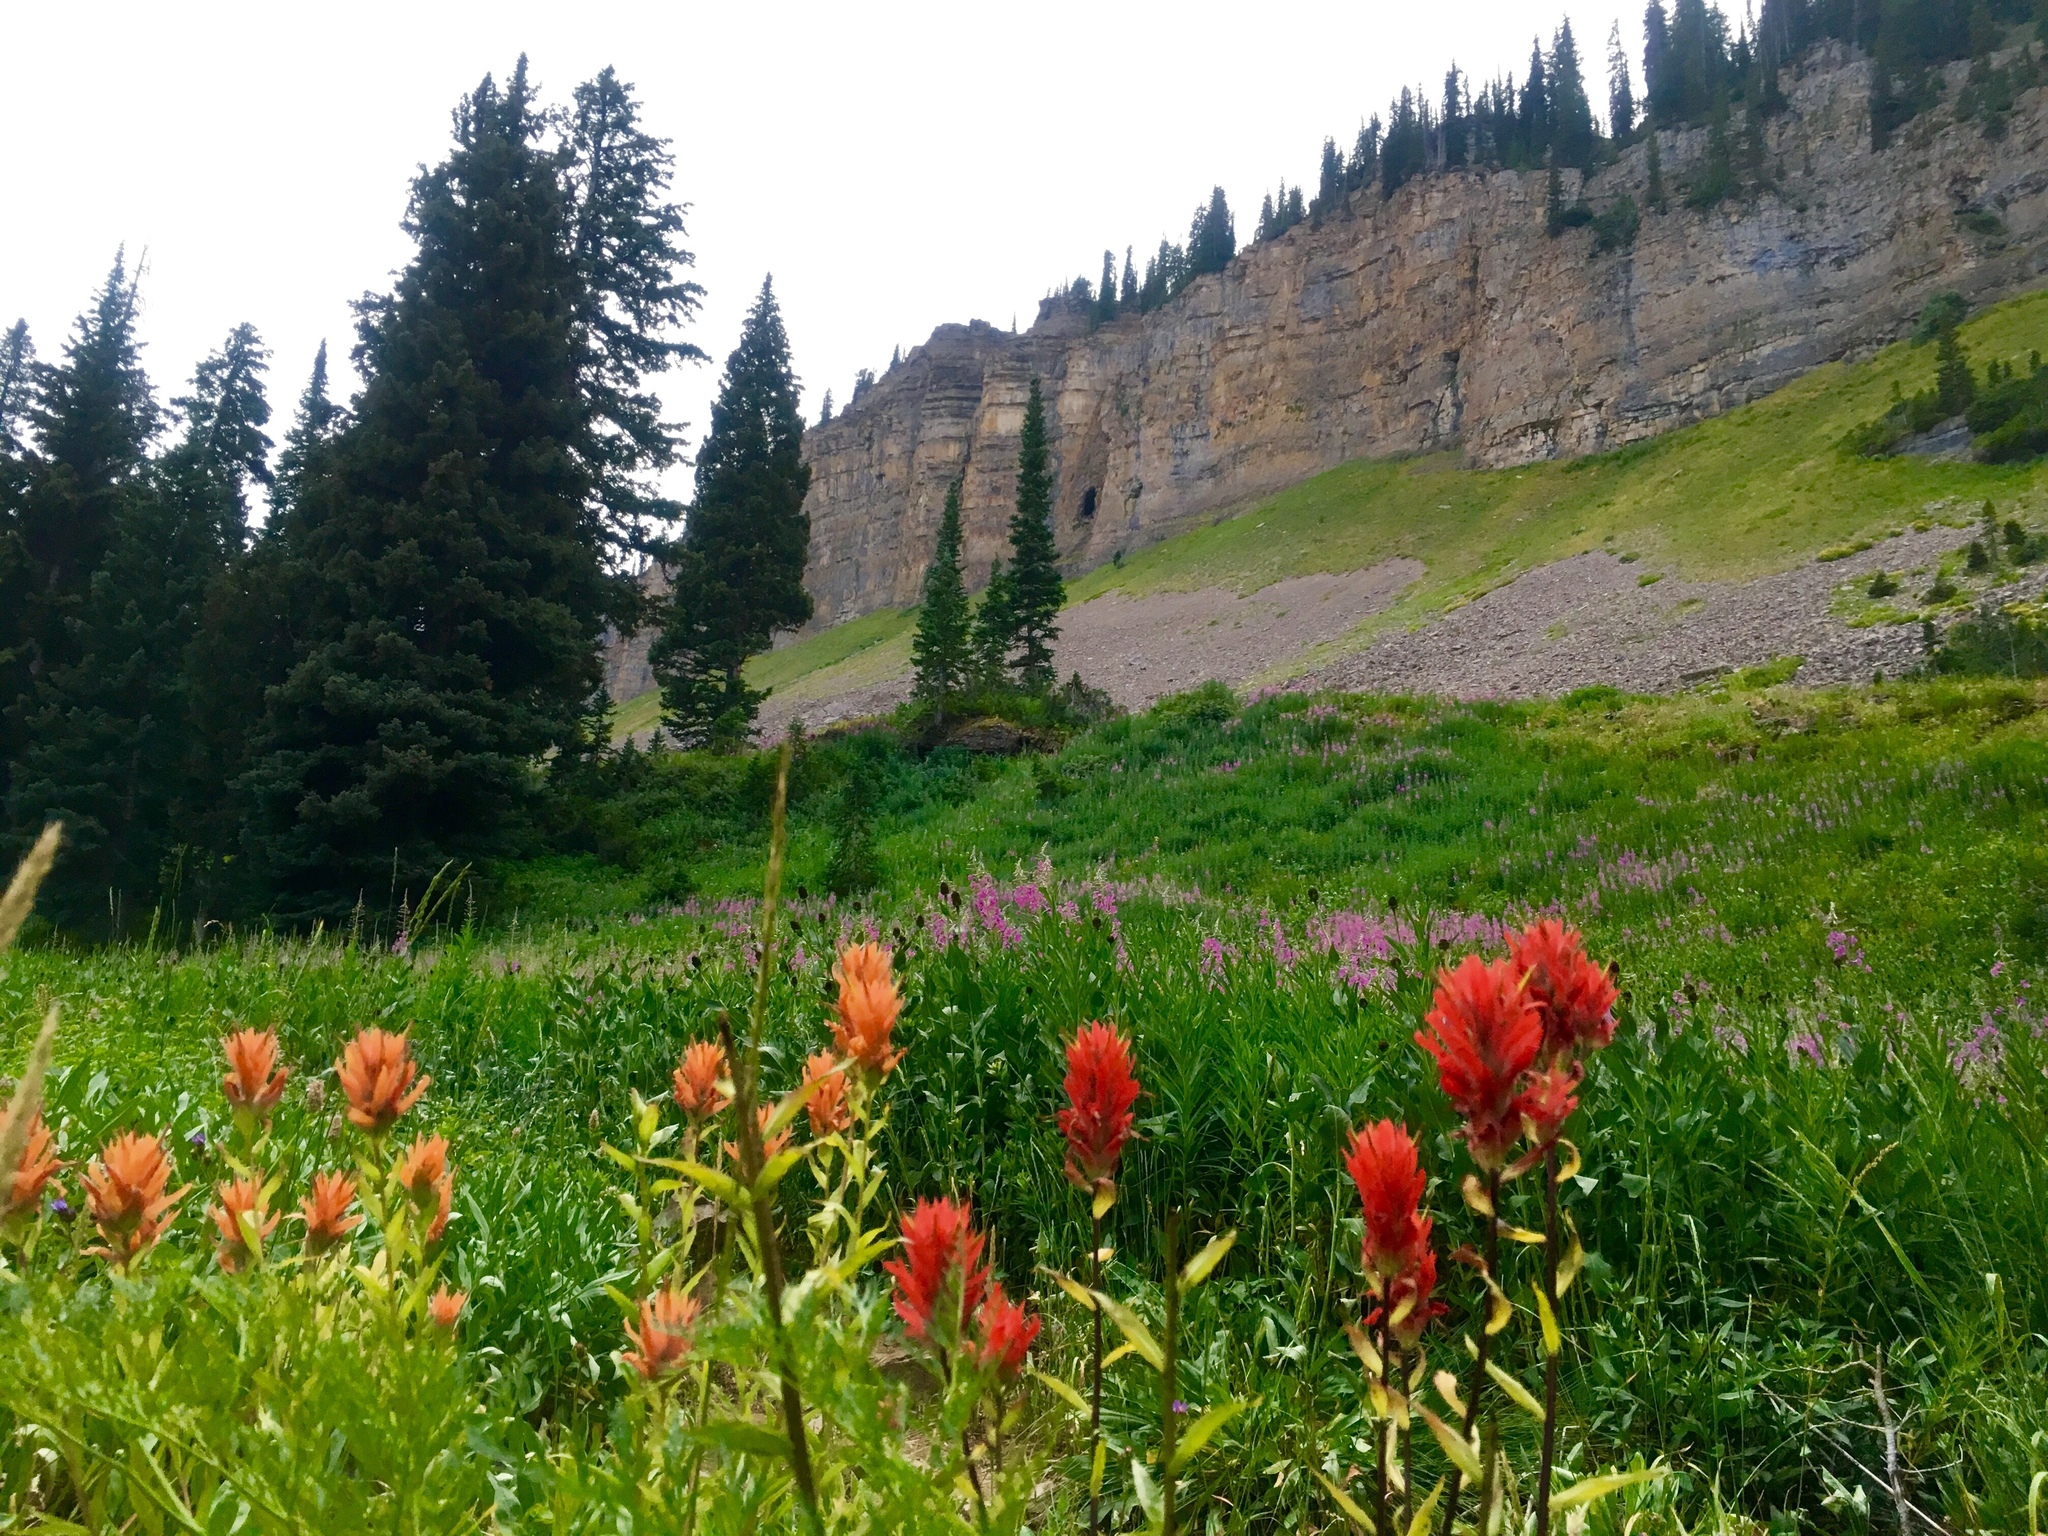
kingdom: Plantae
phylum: Tracheophyta
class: Magnoliopsida
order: Lamiales
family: Orobanchaceae
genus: Castilleja
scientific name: Castilleja miniata
